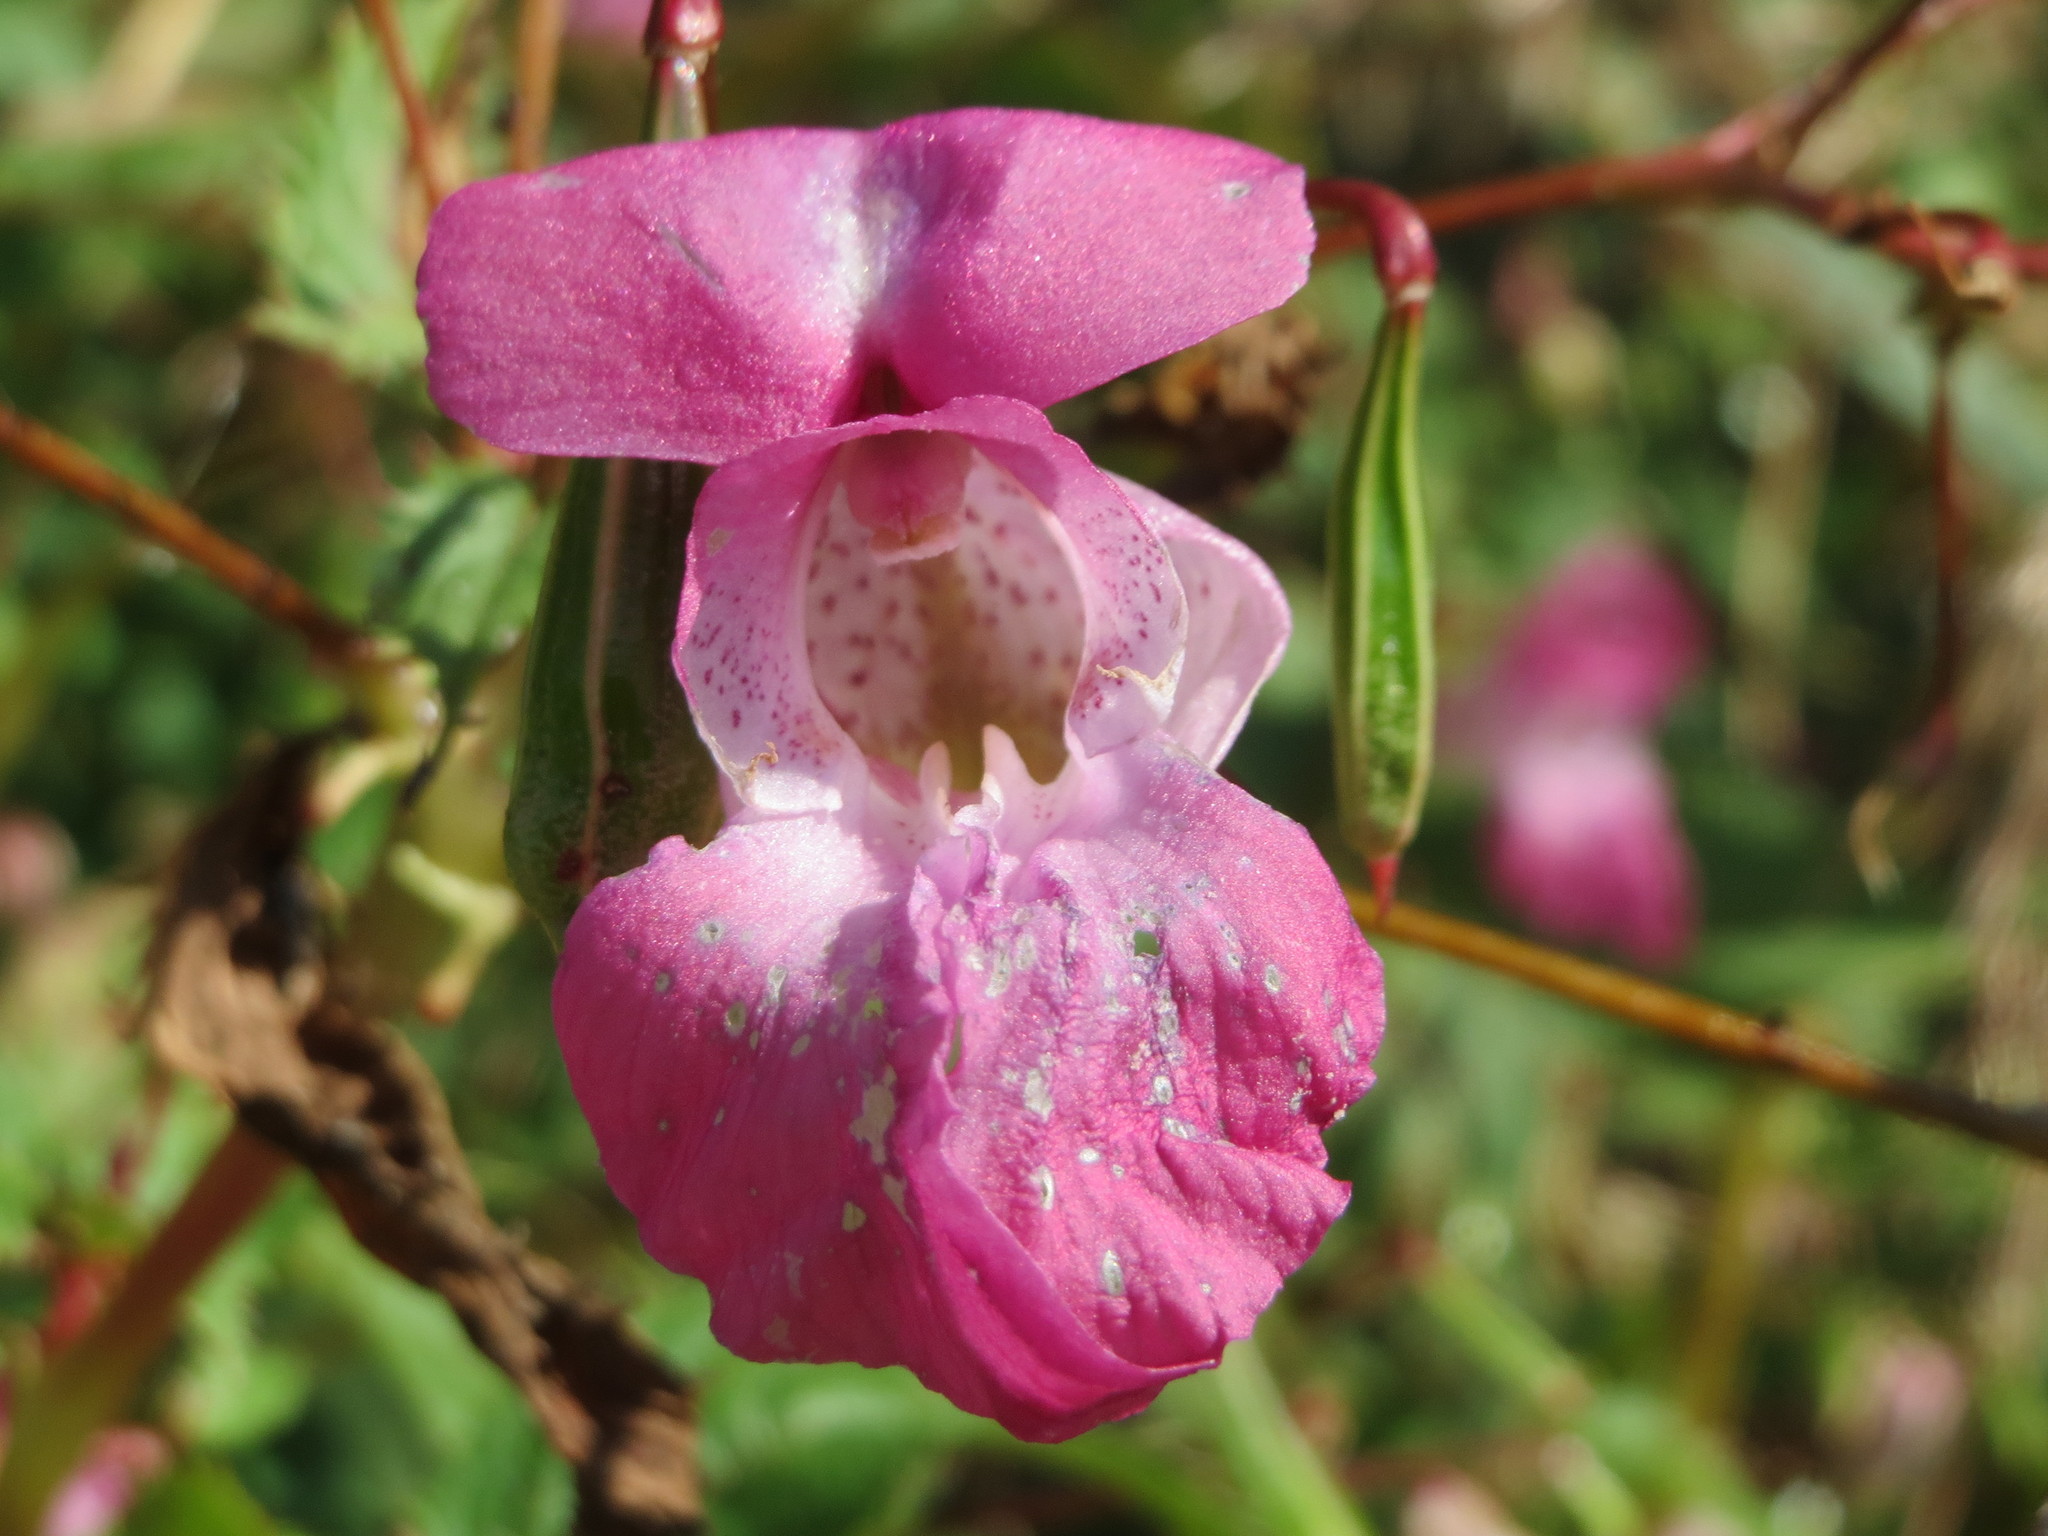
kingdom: Plantae
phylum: Tracheophyta
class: Magnoliopsida
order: Ericales
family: Balsaminaceae
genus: Impatiens
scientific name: Impatiens glandulifera
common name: Himalayan balsam
